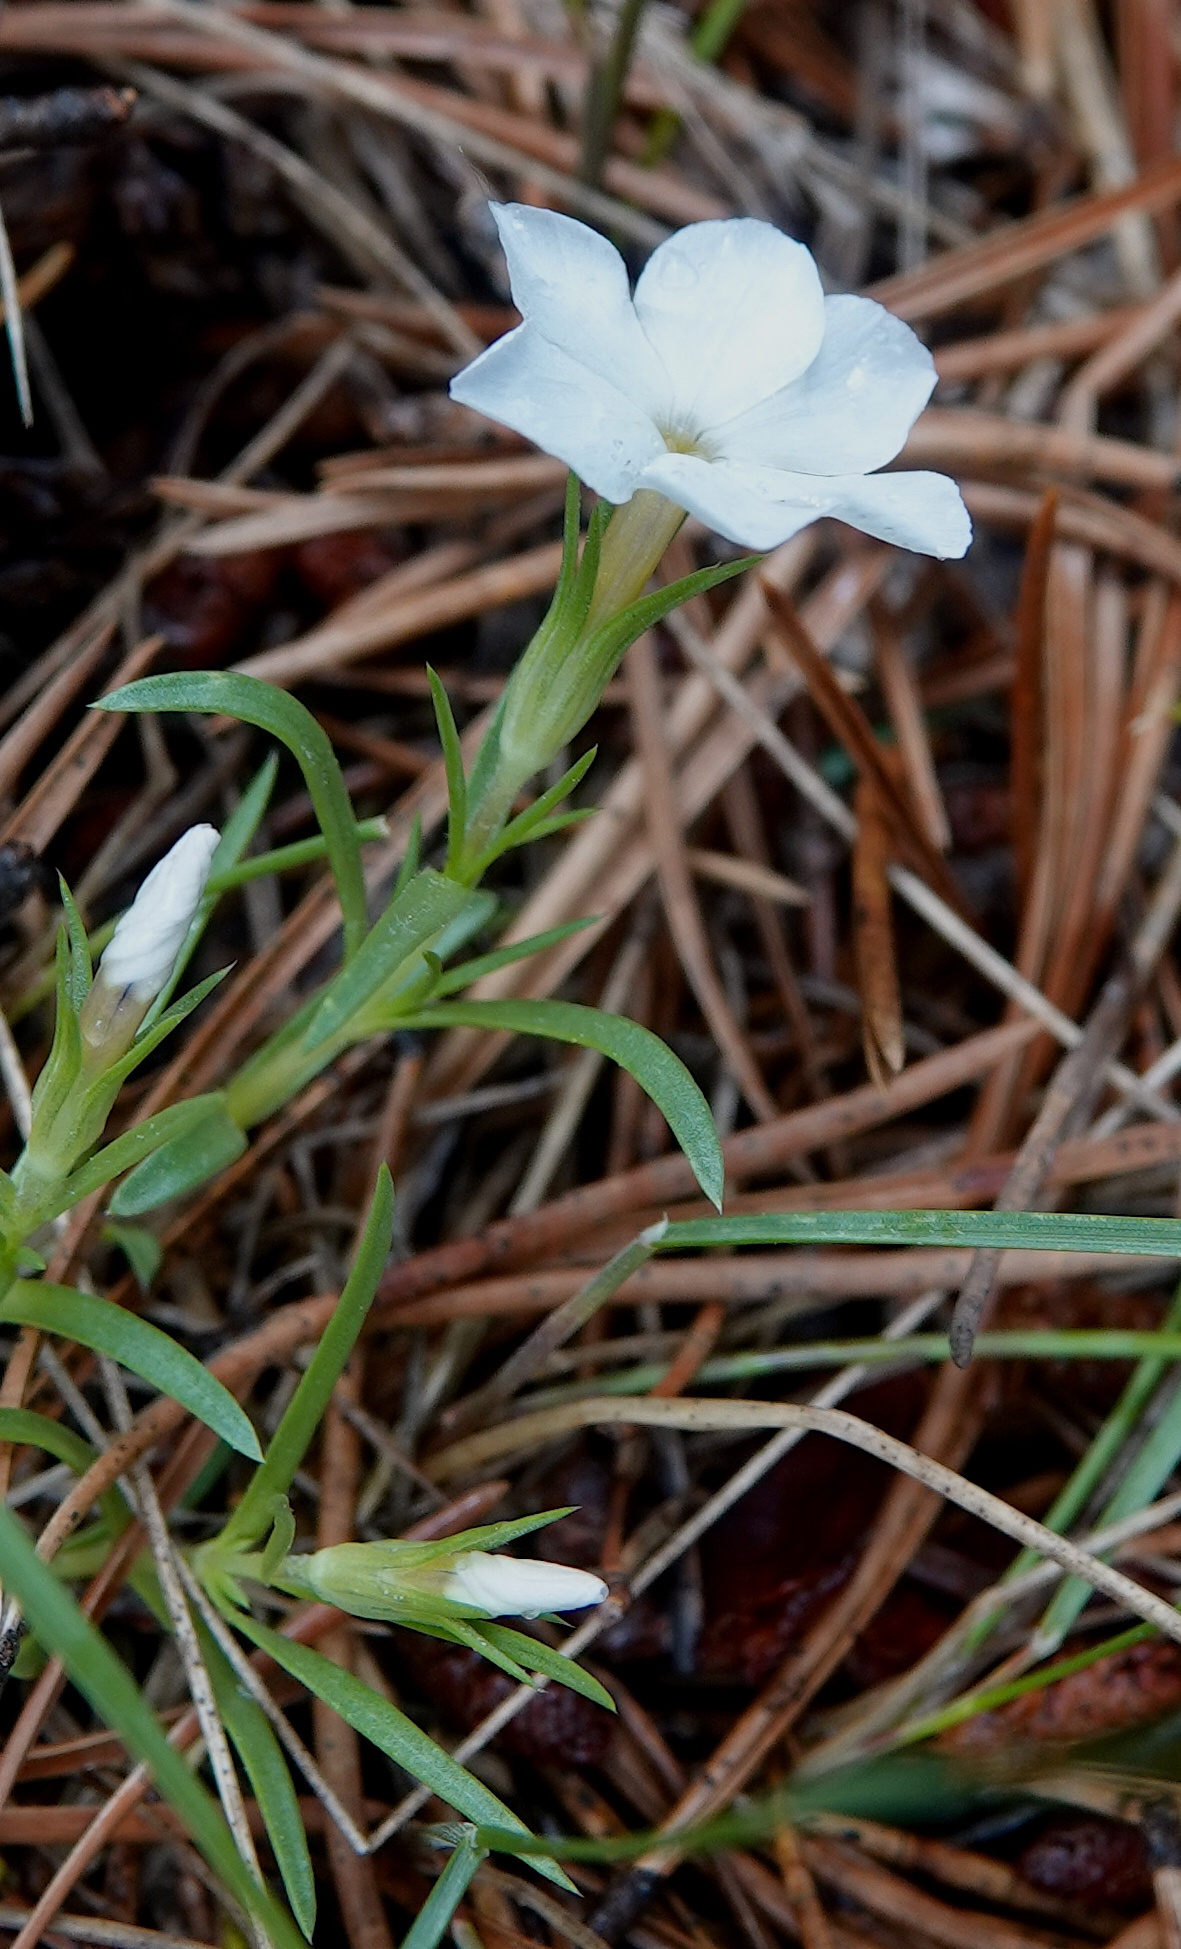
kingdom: Plantae
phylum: Tracheophyta
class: Magnoliopsida
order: Ericales
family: Polemoniaceae
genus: Phlox
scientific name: Phlox multiflora
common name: Rocky mountain phlox
